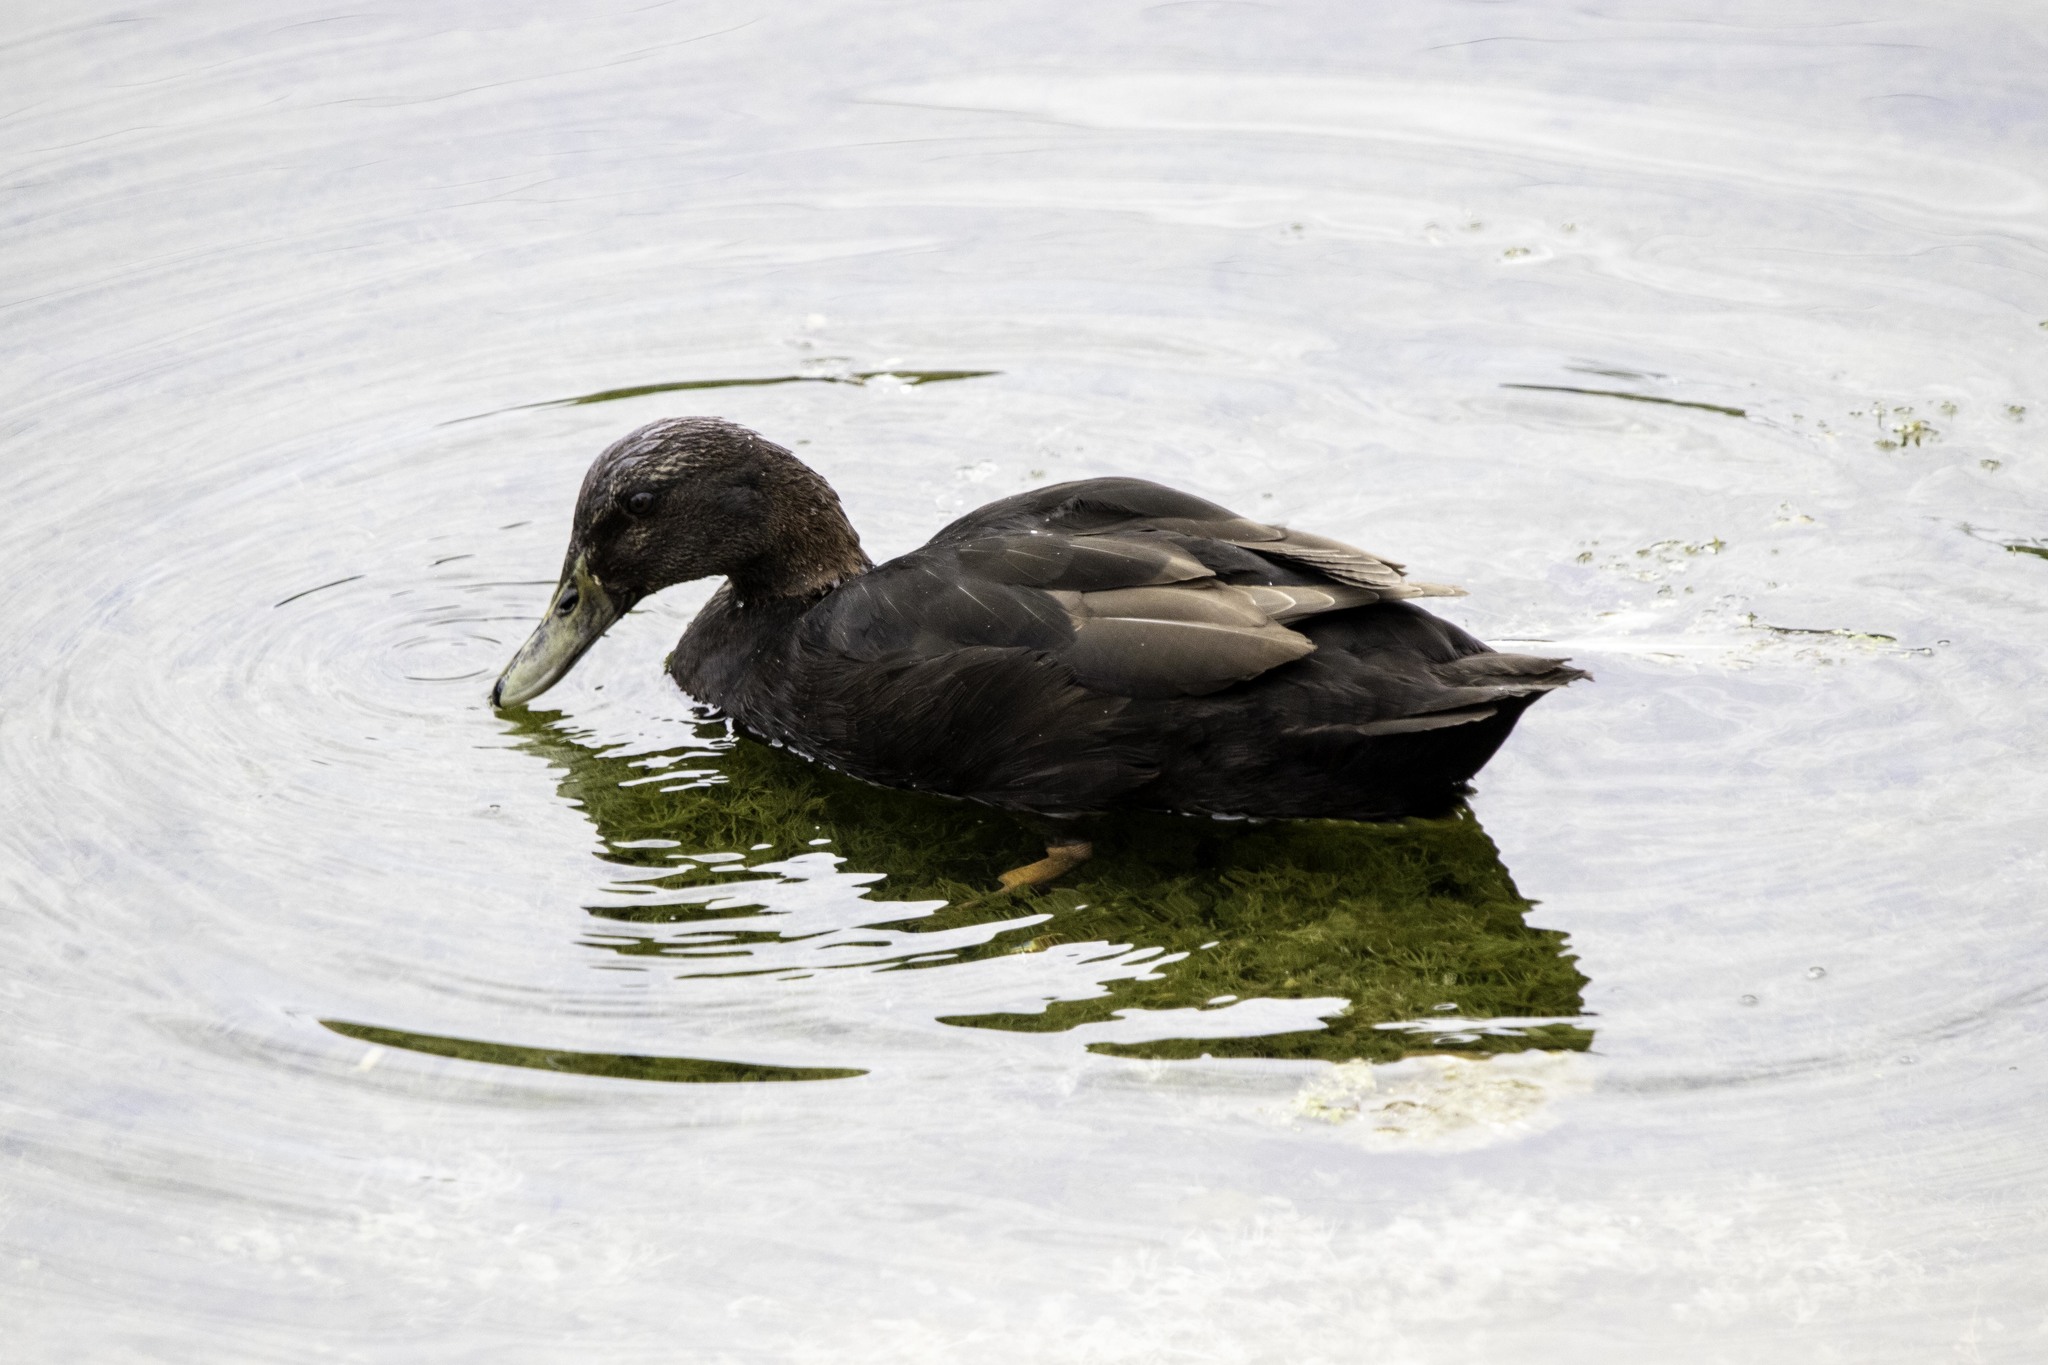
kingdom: Animalia
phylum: Chordata
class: Aves
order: Anseriformes
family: Anatidae
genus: Anas
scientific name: Anas platyrhynchos
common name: Mallard
